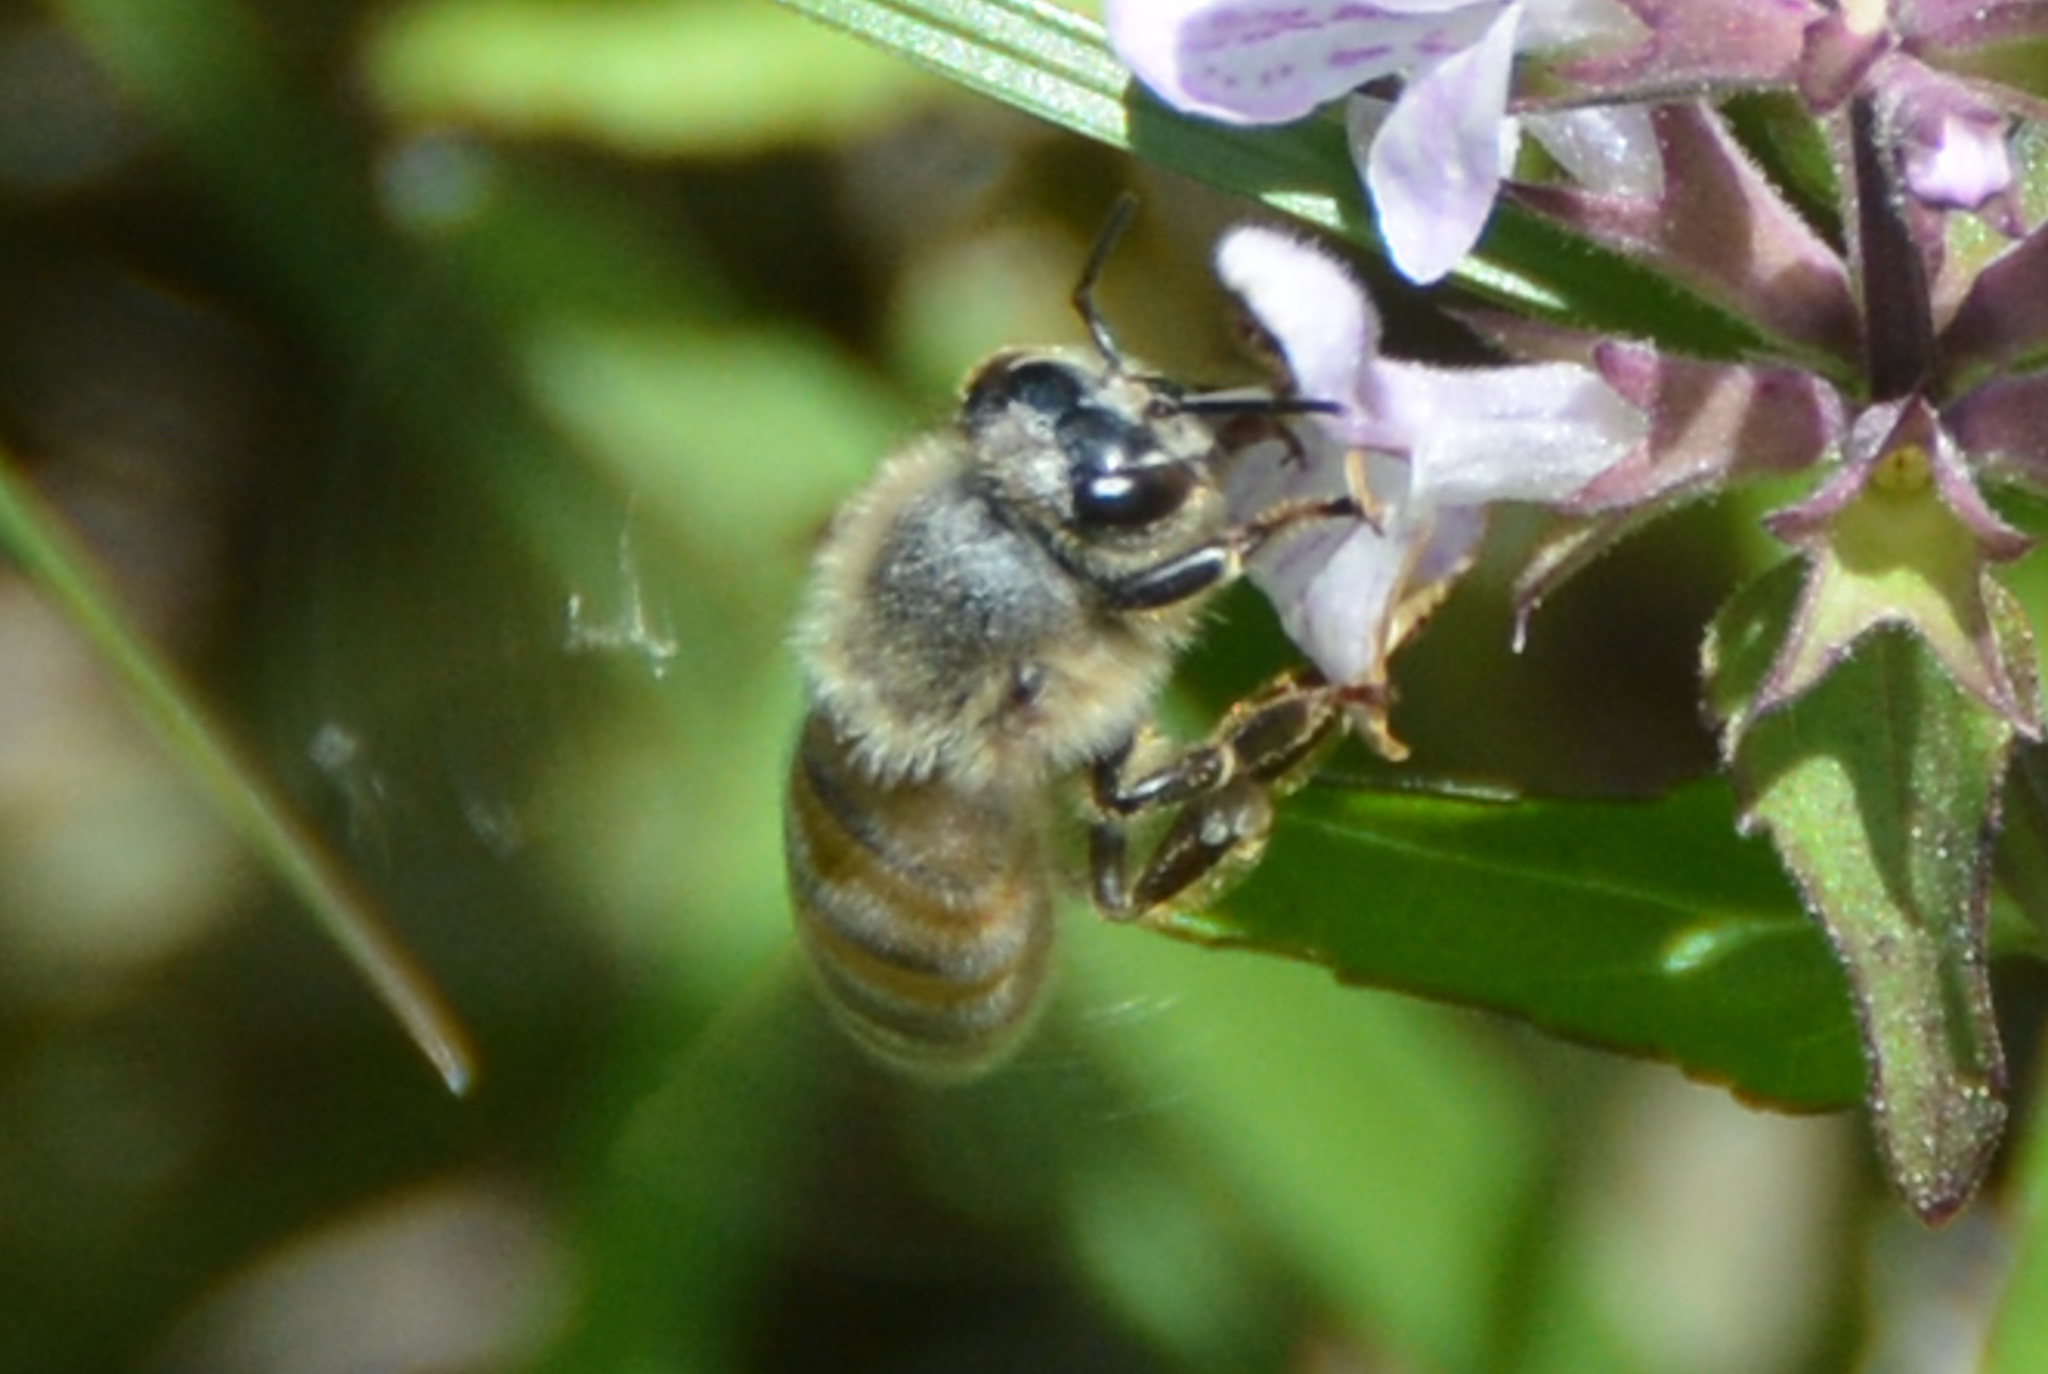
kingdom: Animalia
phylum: Arthropoda
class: Insecta
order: Hymenoptera
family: Apidae
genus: Apis
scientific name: Apis mellifera
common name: Honey bee
